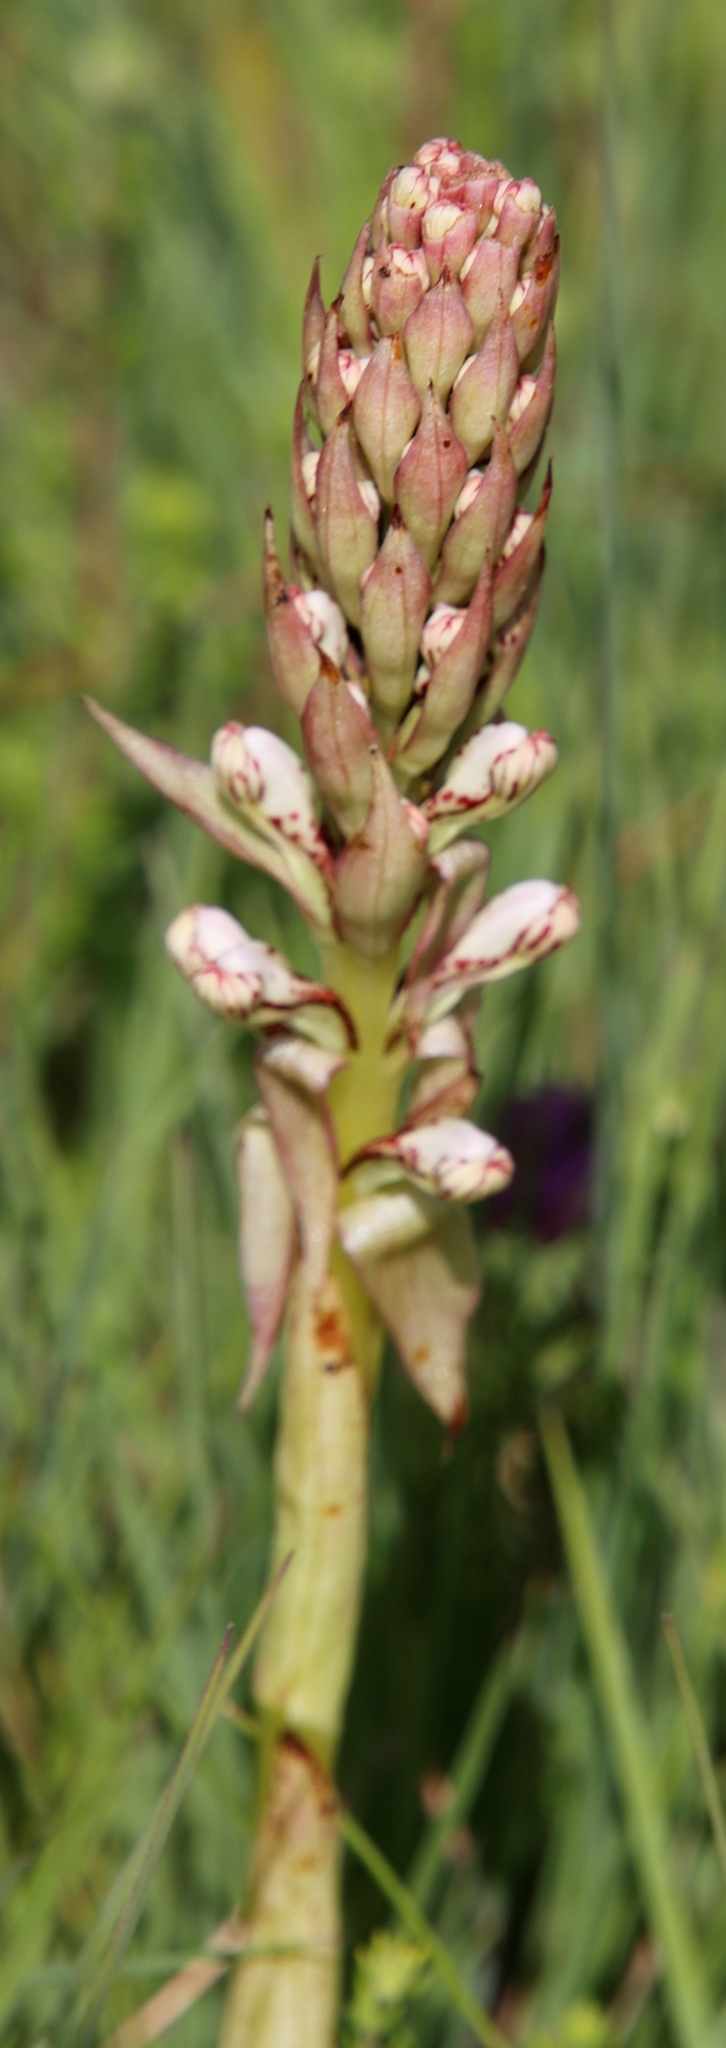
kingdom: Plantae
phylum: Tracheophyta
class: Liliopsida
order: Asparagales
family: Orchidaceae
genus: Satyrium
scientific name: Satyrium cristatum
